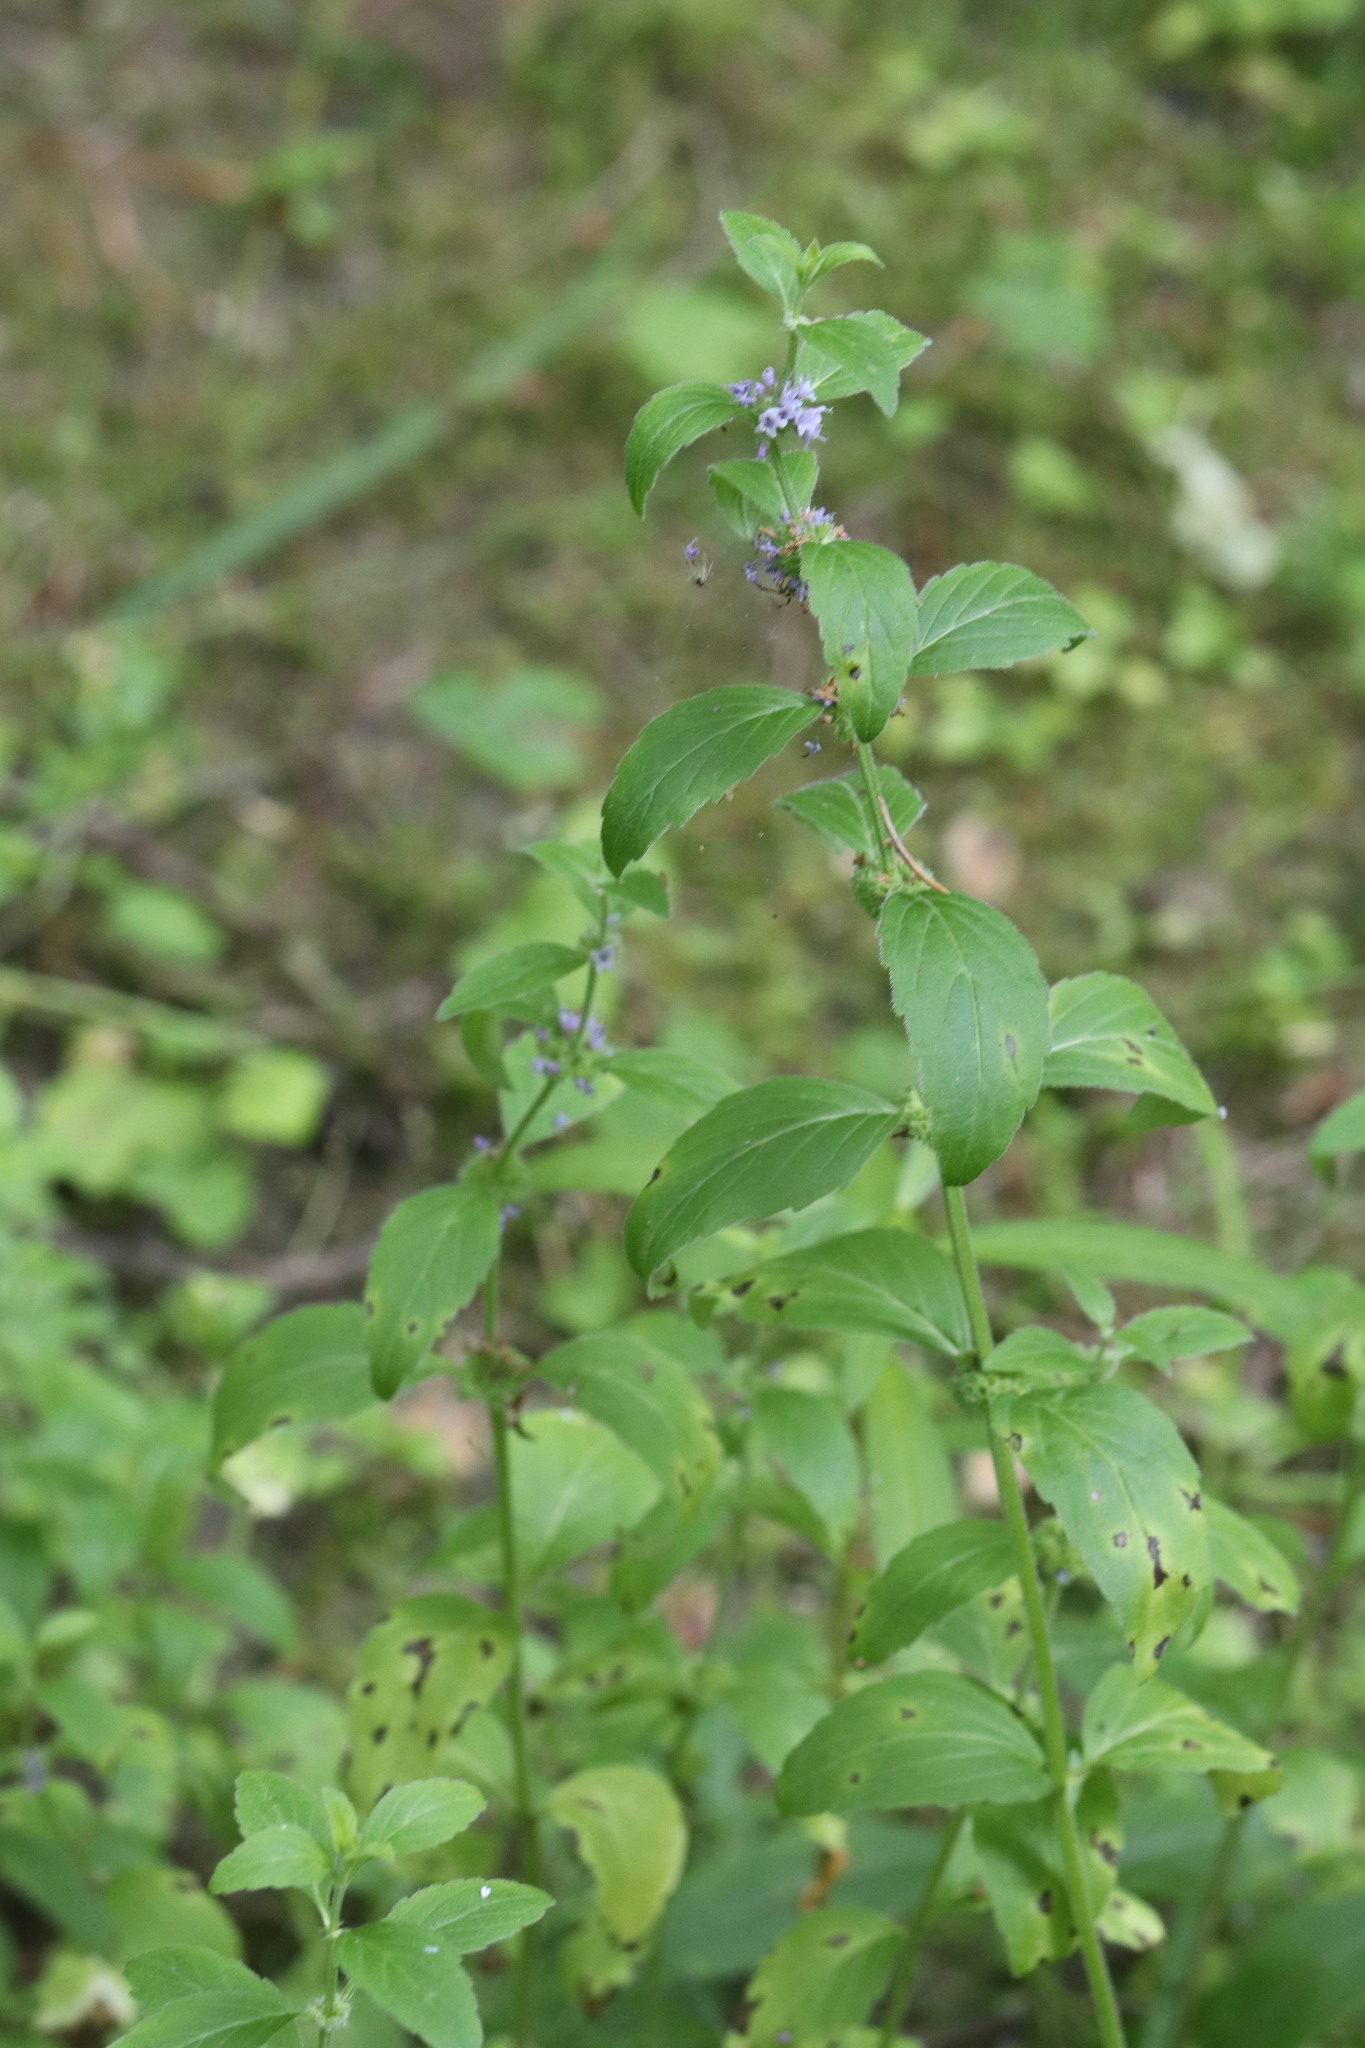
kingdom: Plantae
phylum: Tracheophyta
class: Magnoliopsida
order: Lamiales
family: Lamiaceae
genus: Mentha
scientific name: Mentha arvensis
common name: Corn mint
